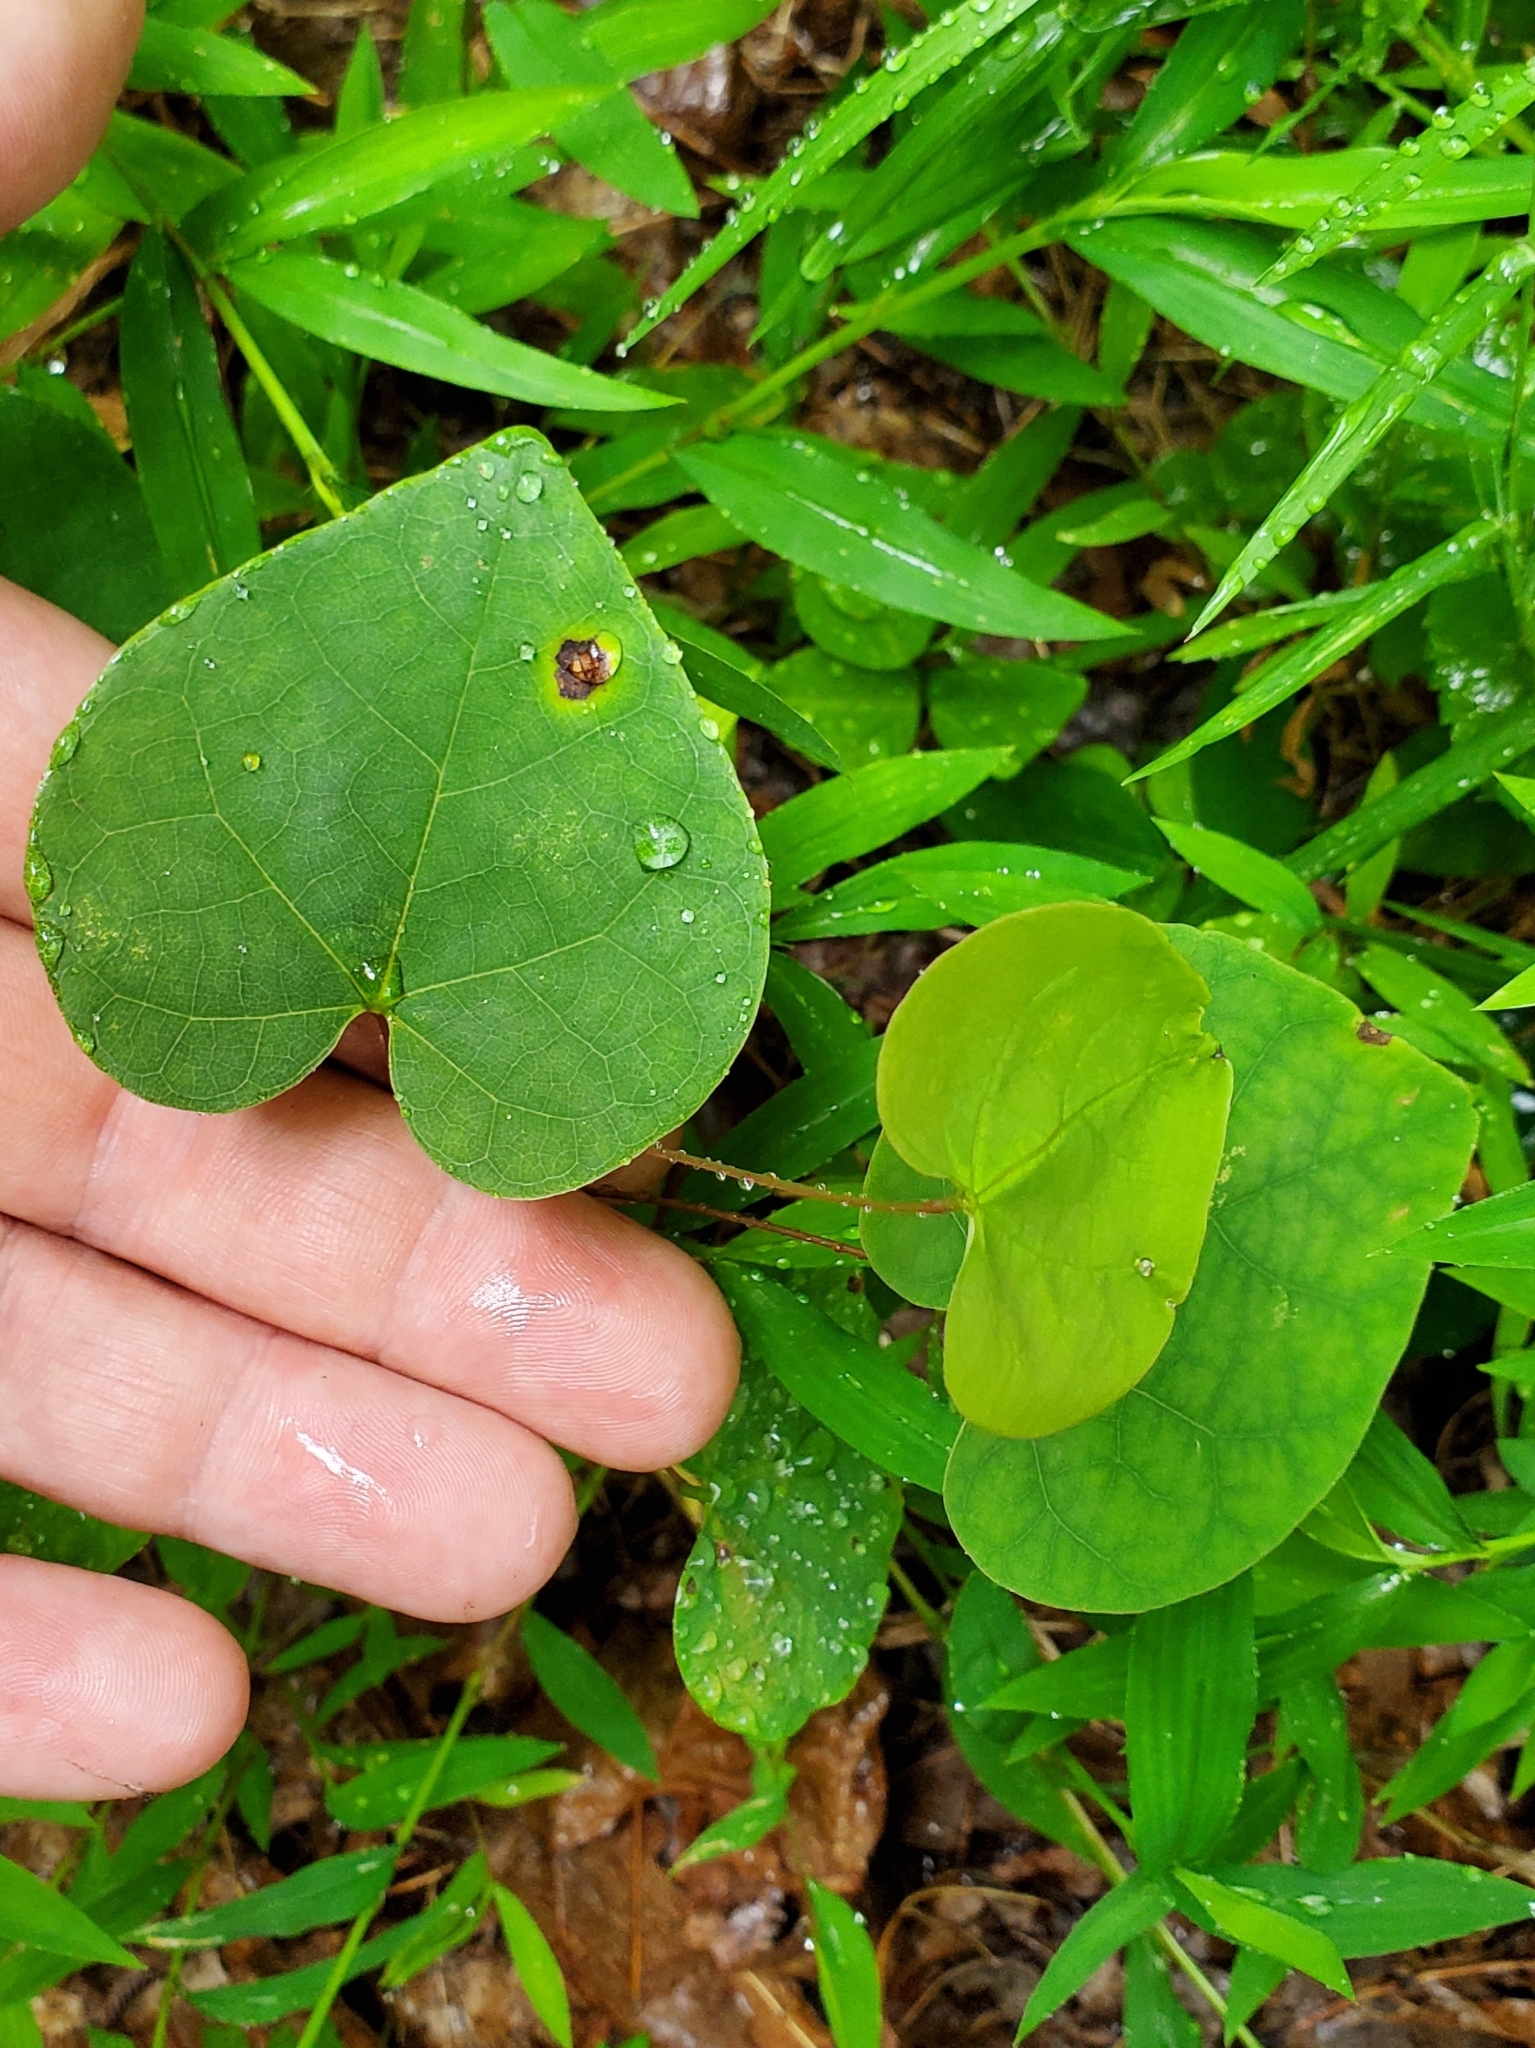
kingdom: Plantae
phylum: Tracheophyta
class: Magnoliopsida
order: Fabales
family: Fabaceae
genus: Cercis
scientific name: Cercis canadensis
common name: Eastern redbud
